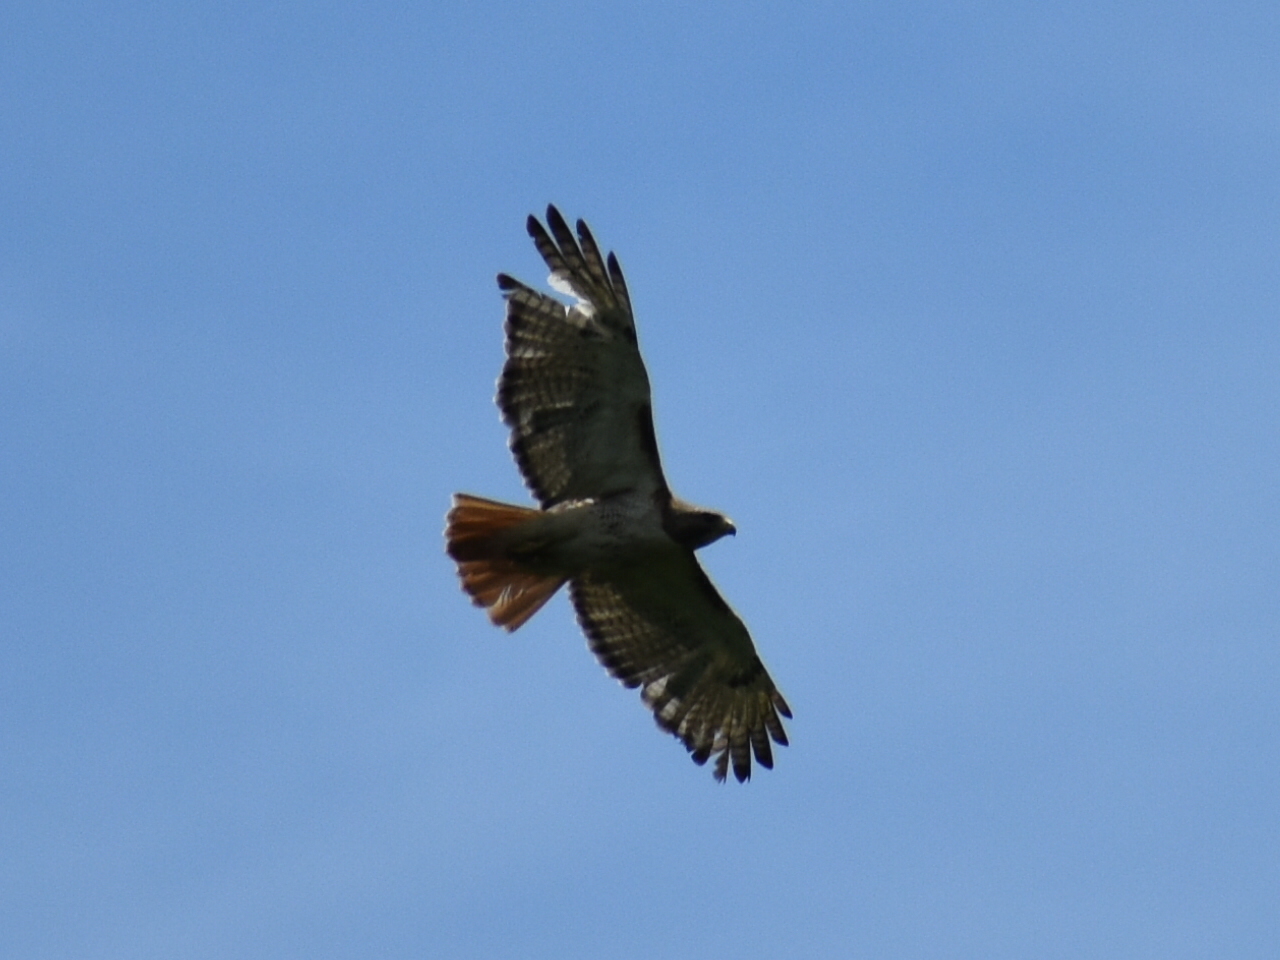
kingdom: Animalia
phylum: Chordata
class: Aves
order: Accipitriformes
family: Accipitridae
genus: Buteo
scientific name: Buteo jamaicensis
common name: Red-tailed hawk
